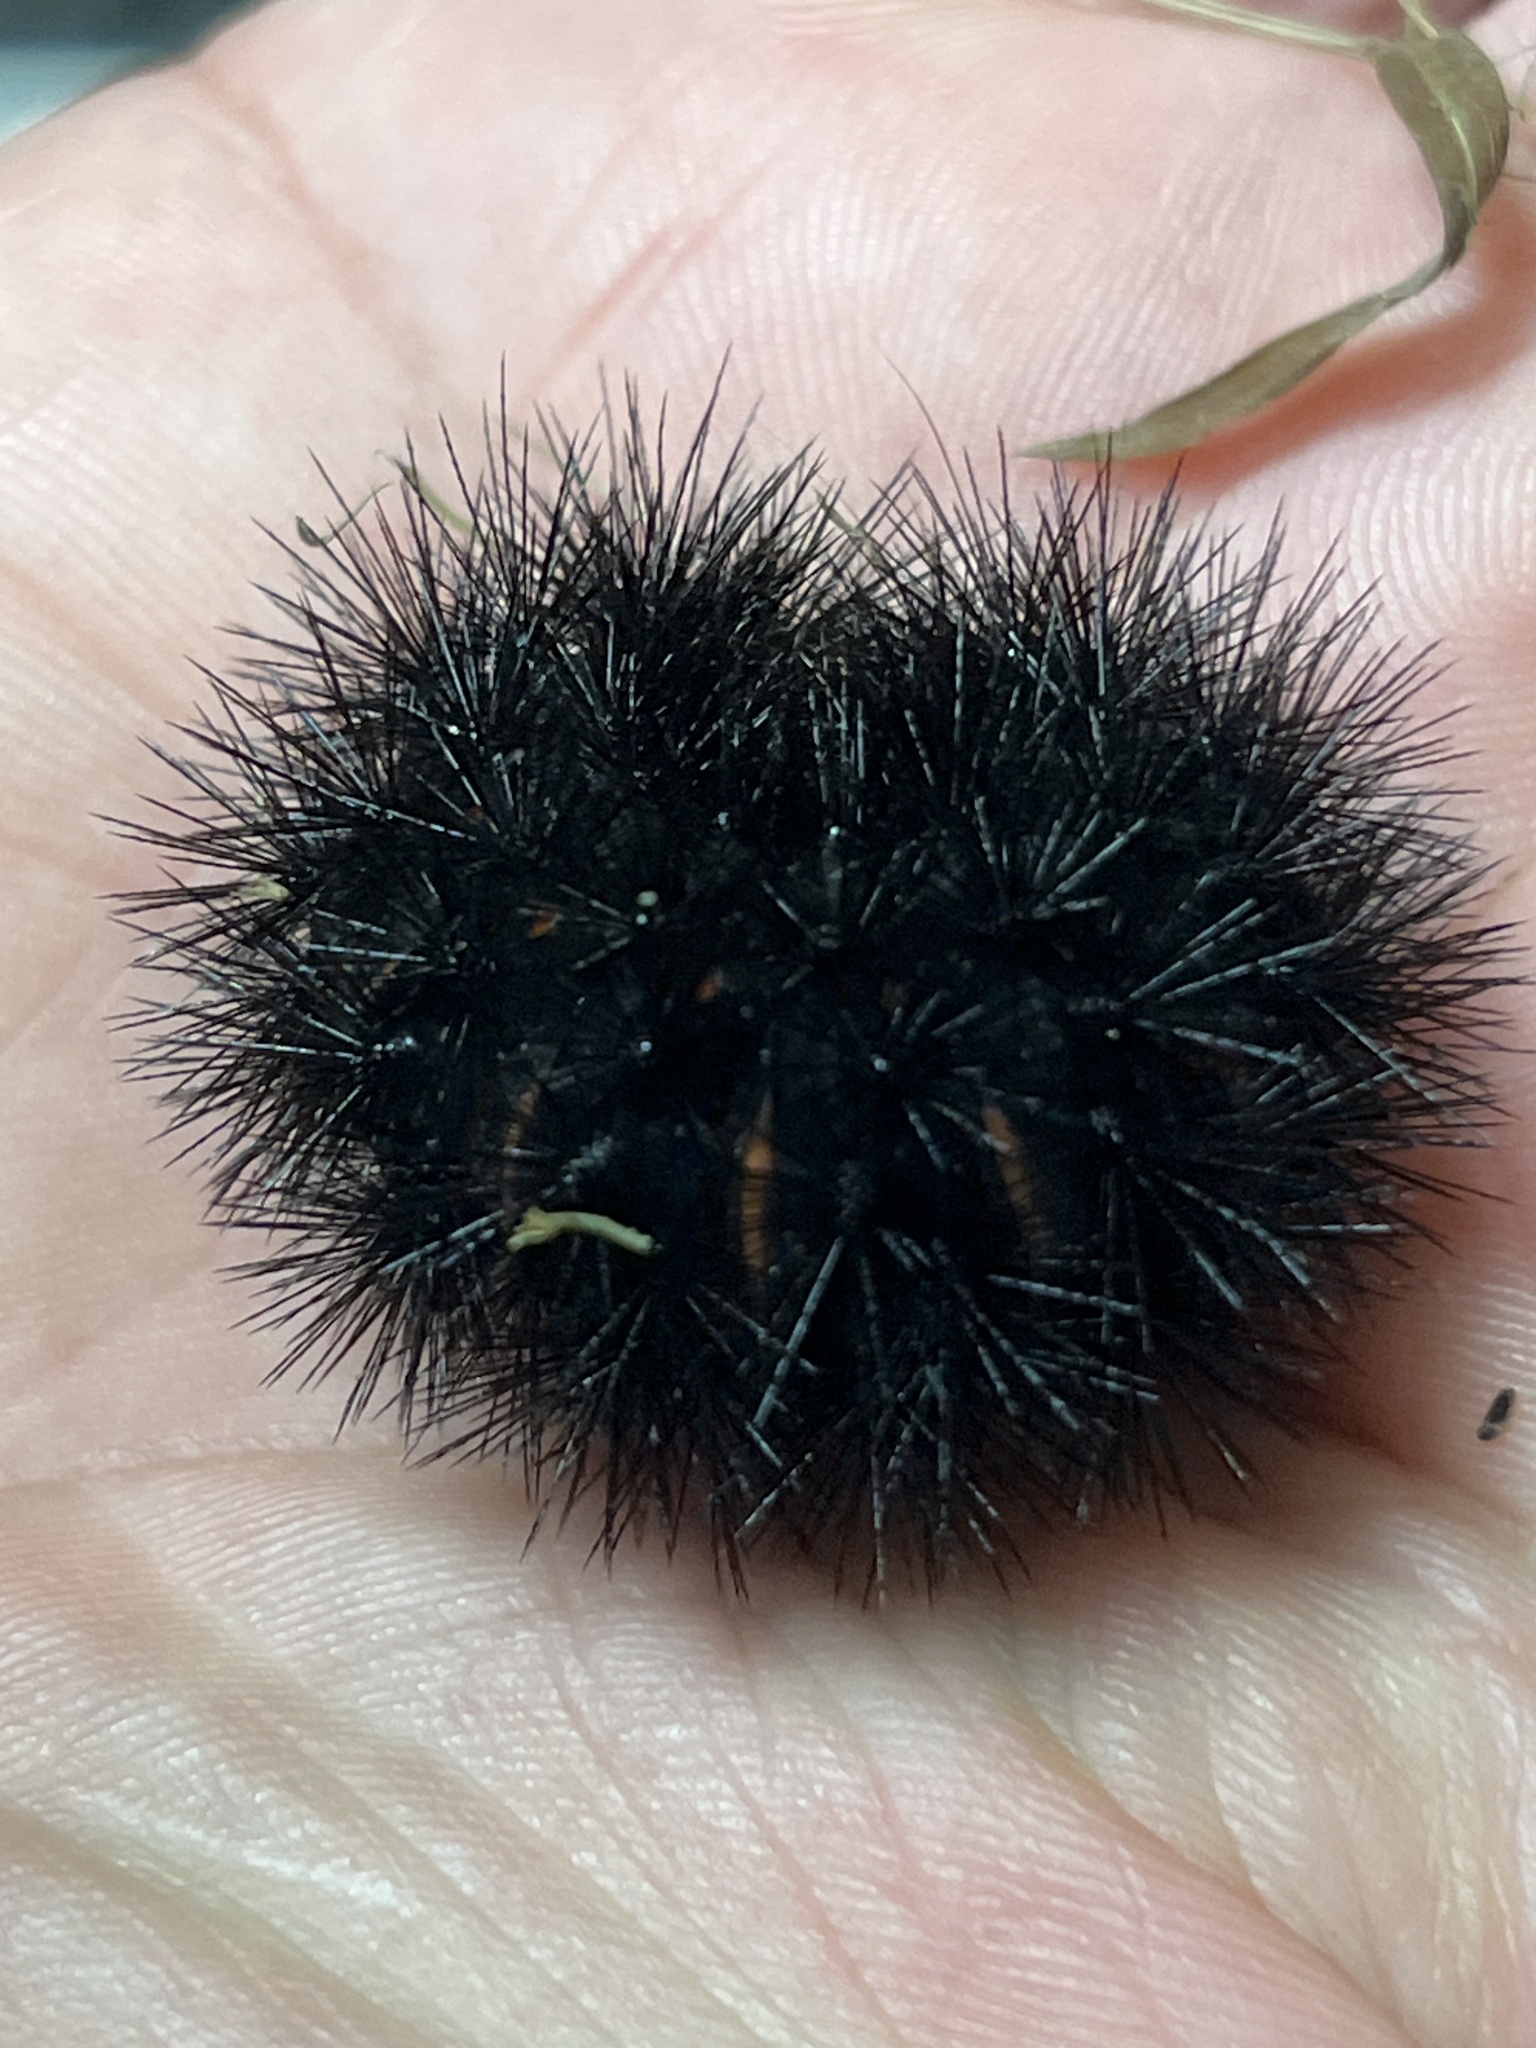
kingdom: Animalia
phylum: Arthropoda
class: Insecta
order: Lepidoptera
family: Erebidae
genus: Hypercompe
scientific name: Hypercompe scribonia
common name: Giant leopard moth
